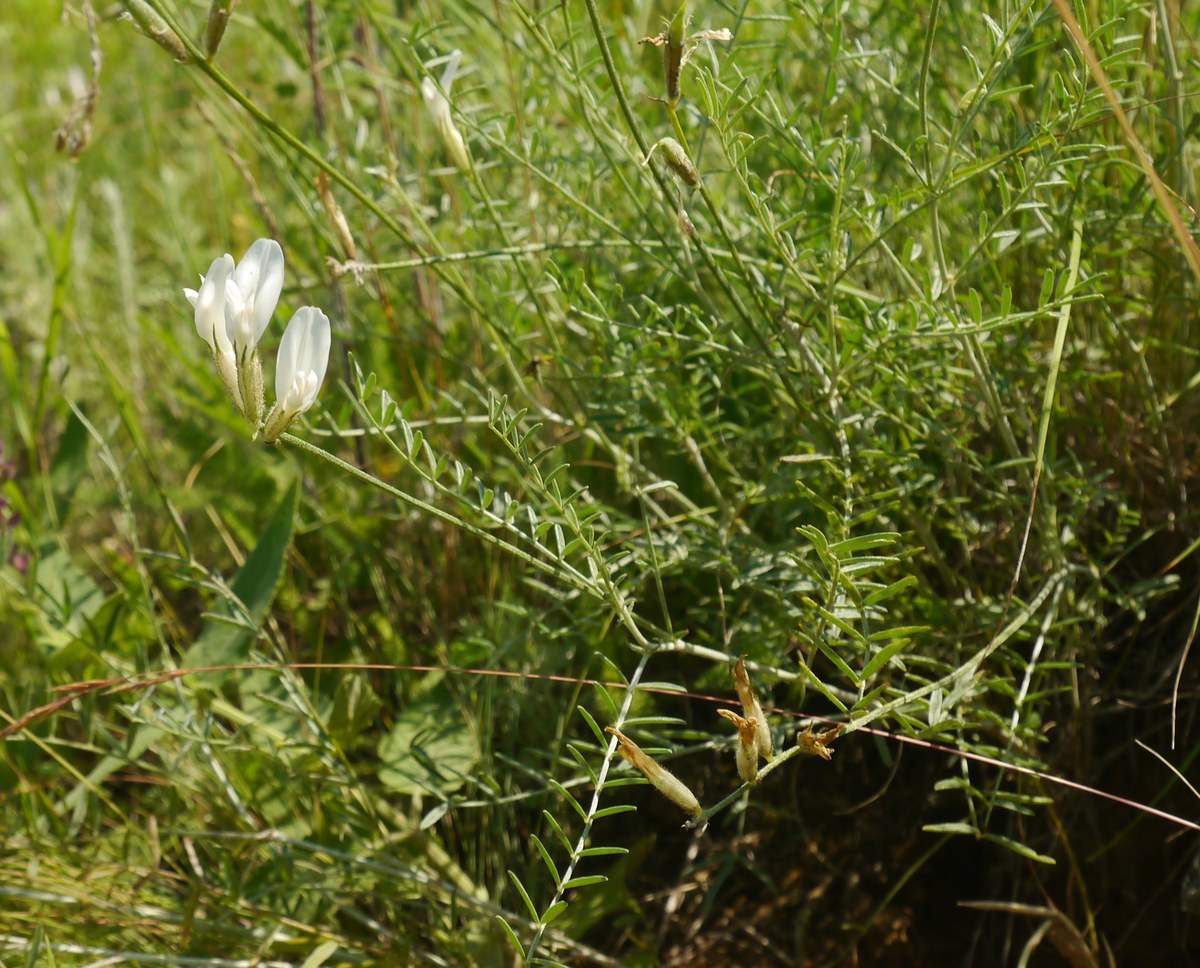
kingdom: Plantae
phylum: Tracheophyta
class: Magnoliopsida
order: Fabales
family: Fabaceae
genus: Astragalus
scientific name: Astragalus pallescens
